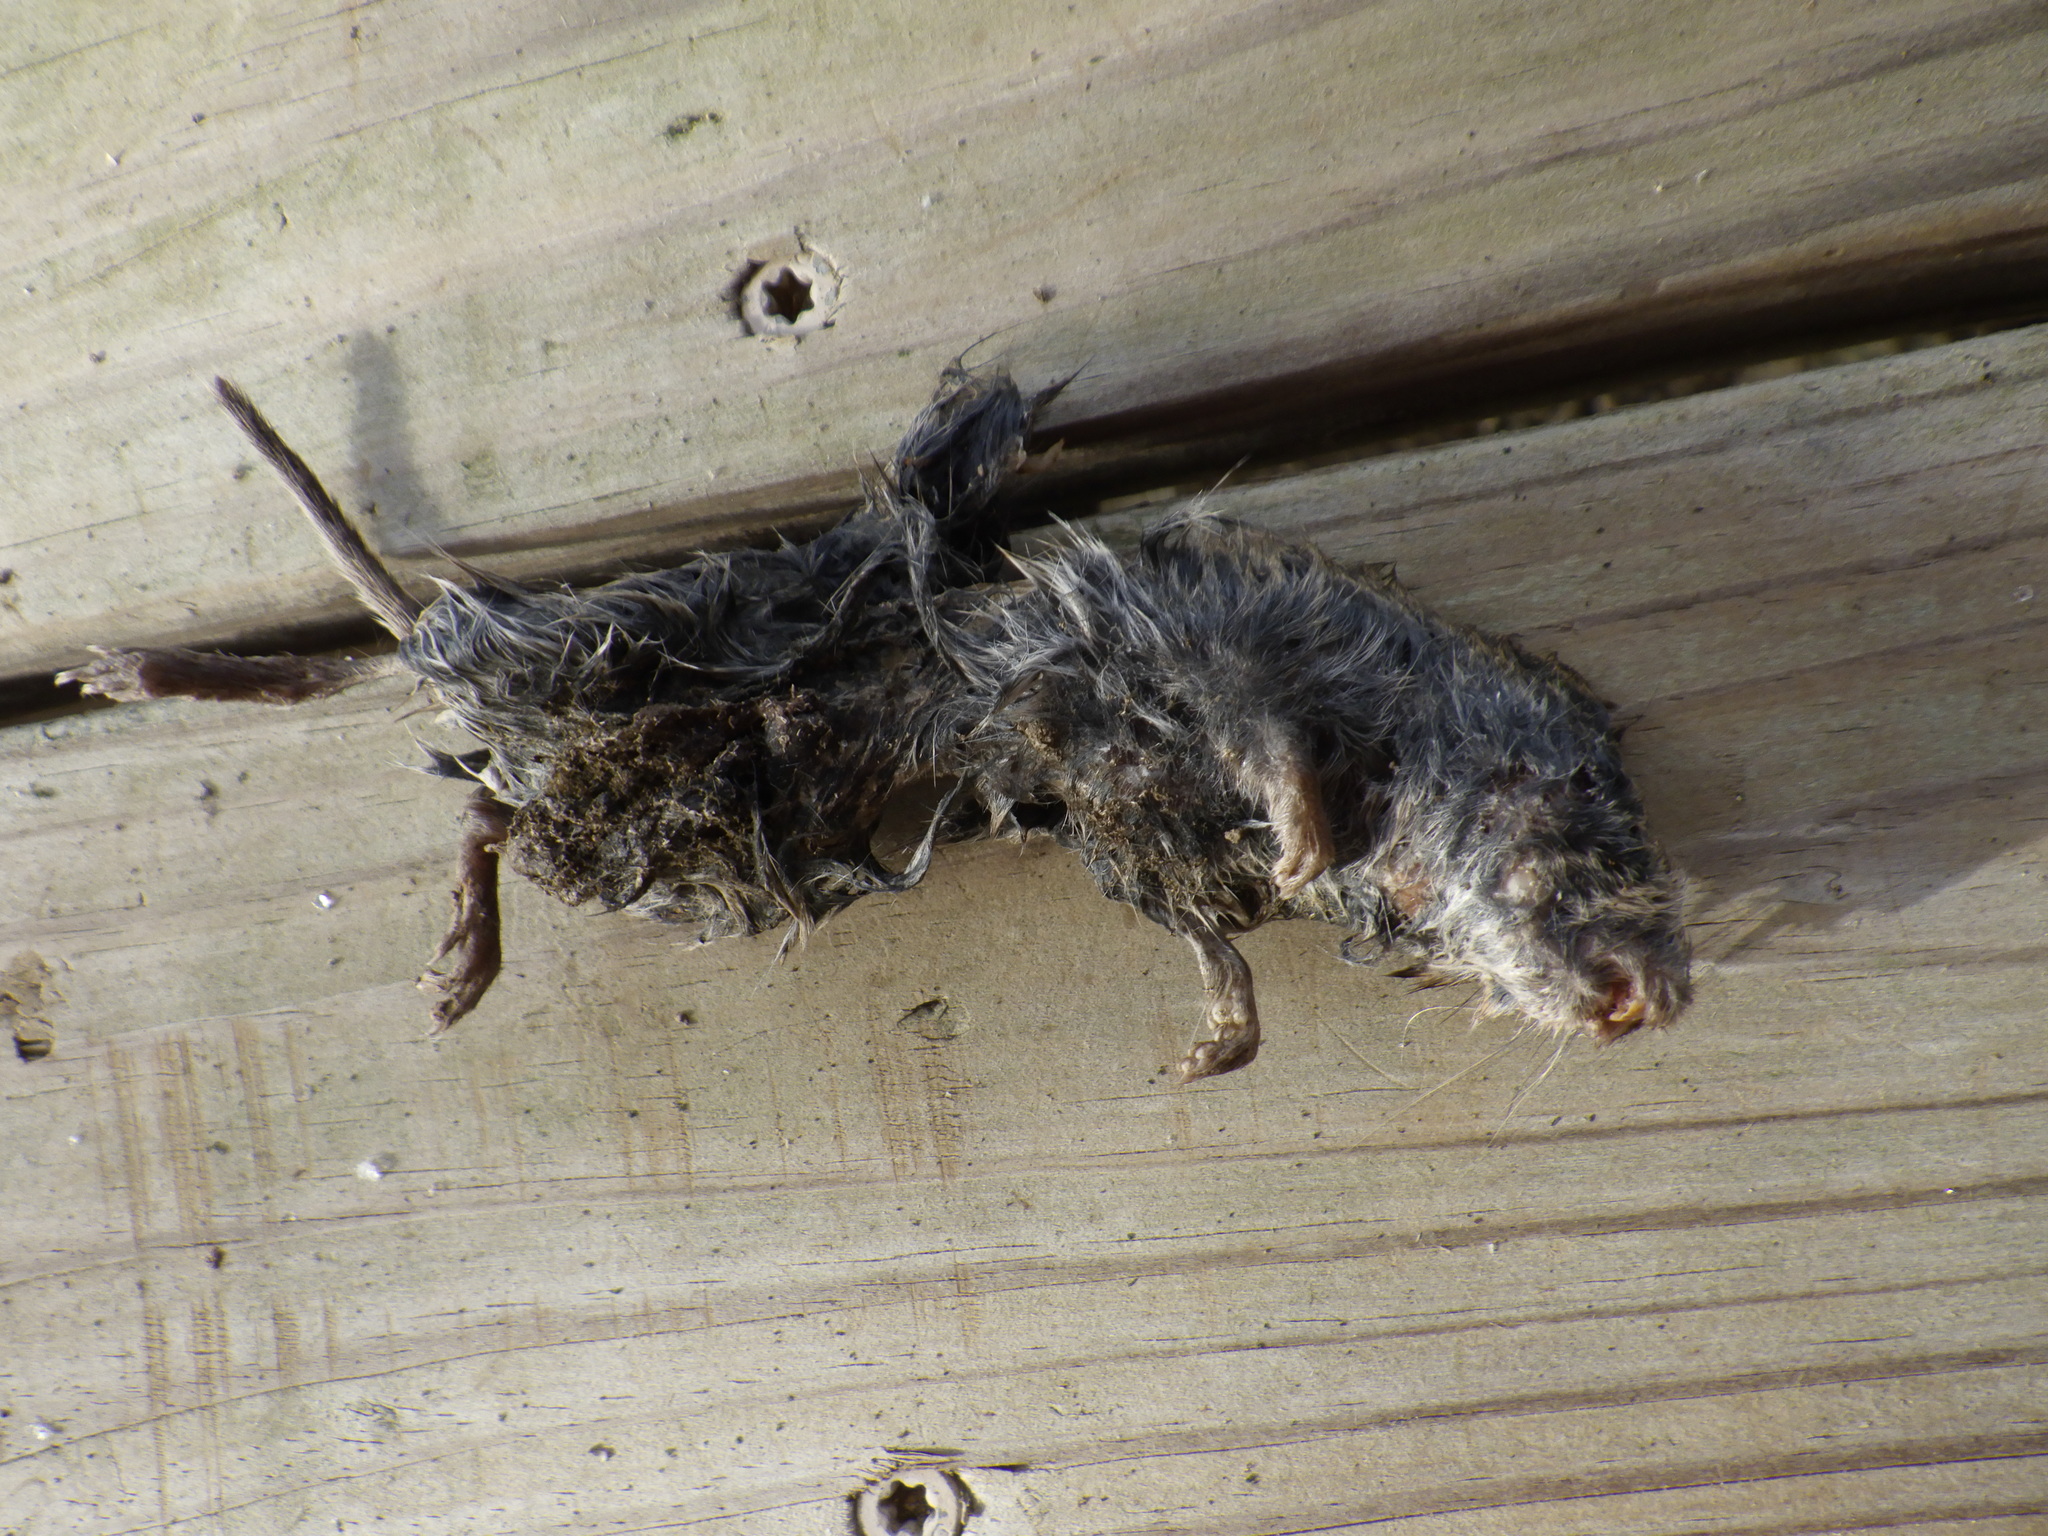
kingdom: Animalia
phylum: Chordata
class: Mammalia
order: Rodentia
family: Cricetidae
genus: Microtus
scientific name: Microtus pennsylvanicus
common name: Meadow vole
